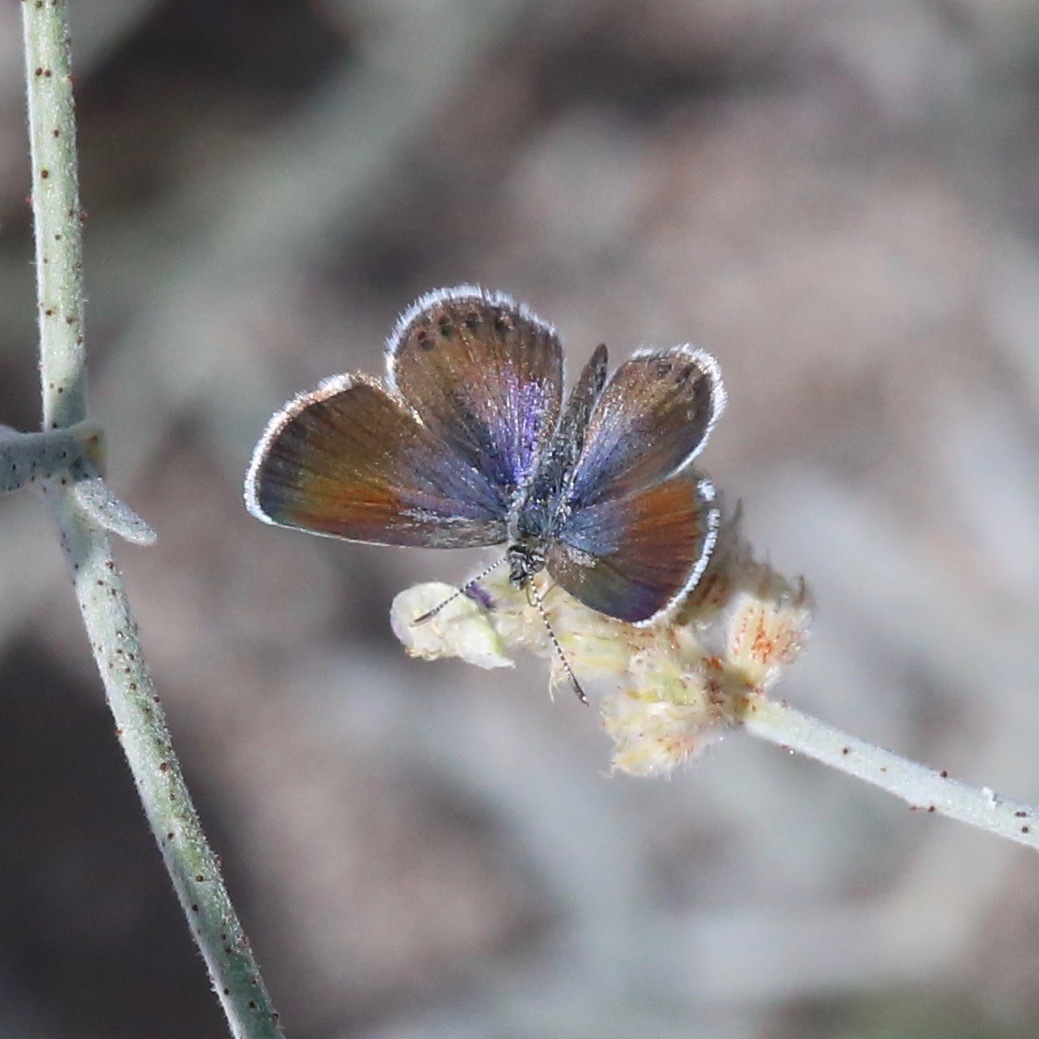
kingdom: Animalia
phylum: Arthropoda
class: Insecta
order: Lepidoptera
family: Lycaenidae
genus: Brephidium
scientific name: Brephidium exilis
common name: Pygmy blue
